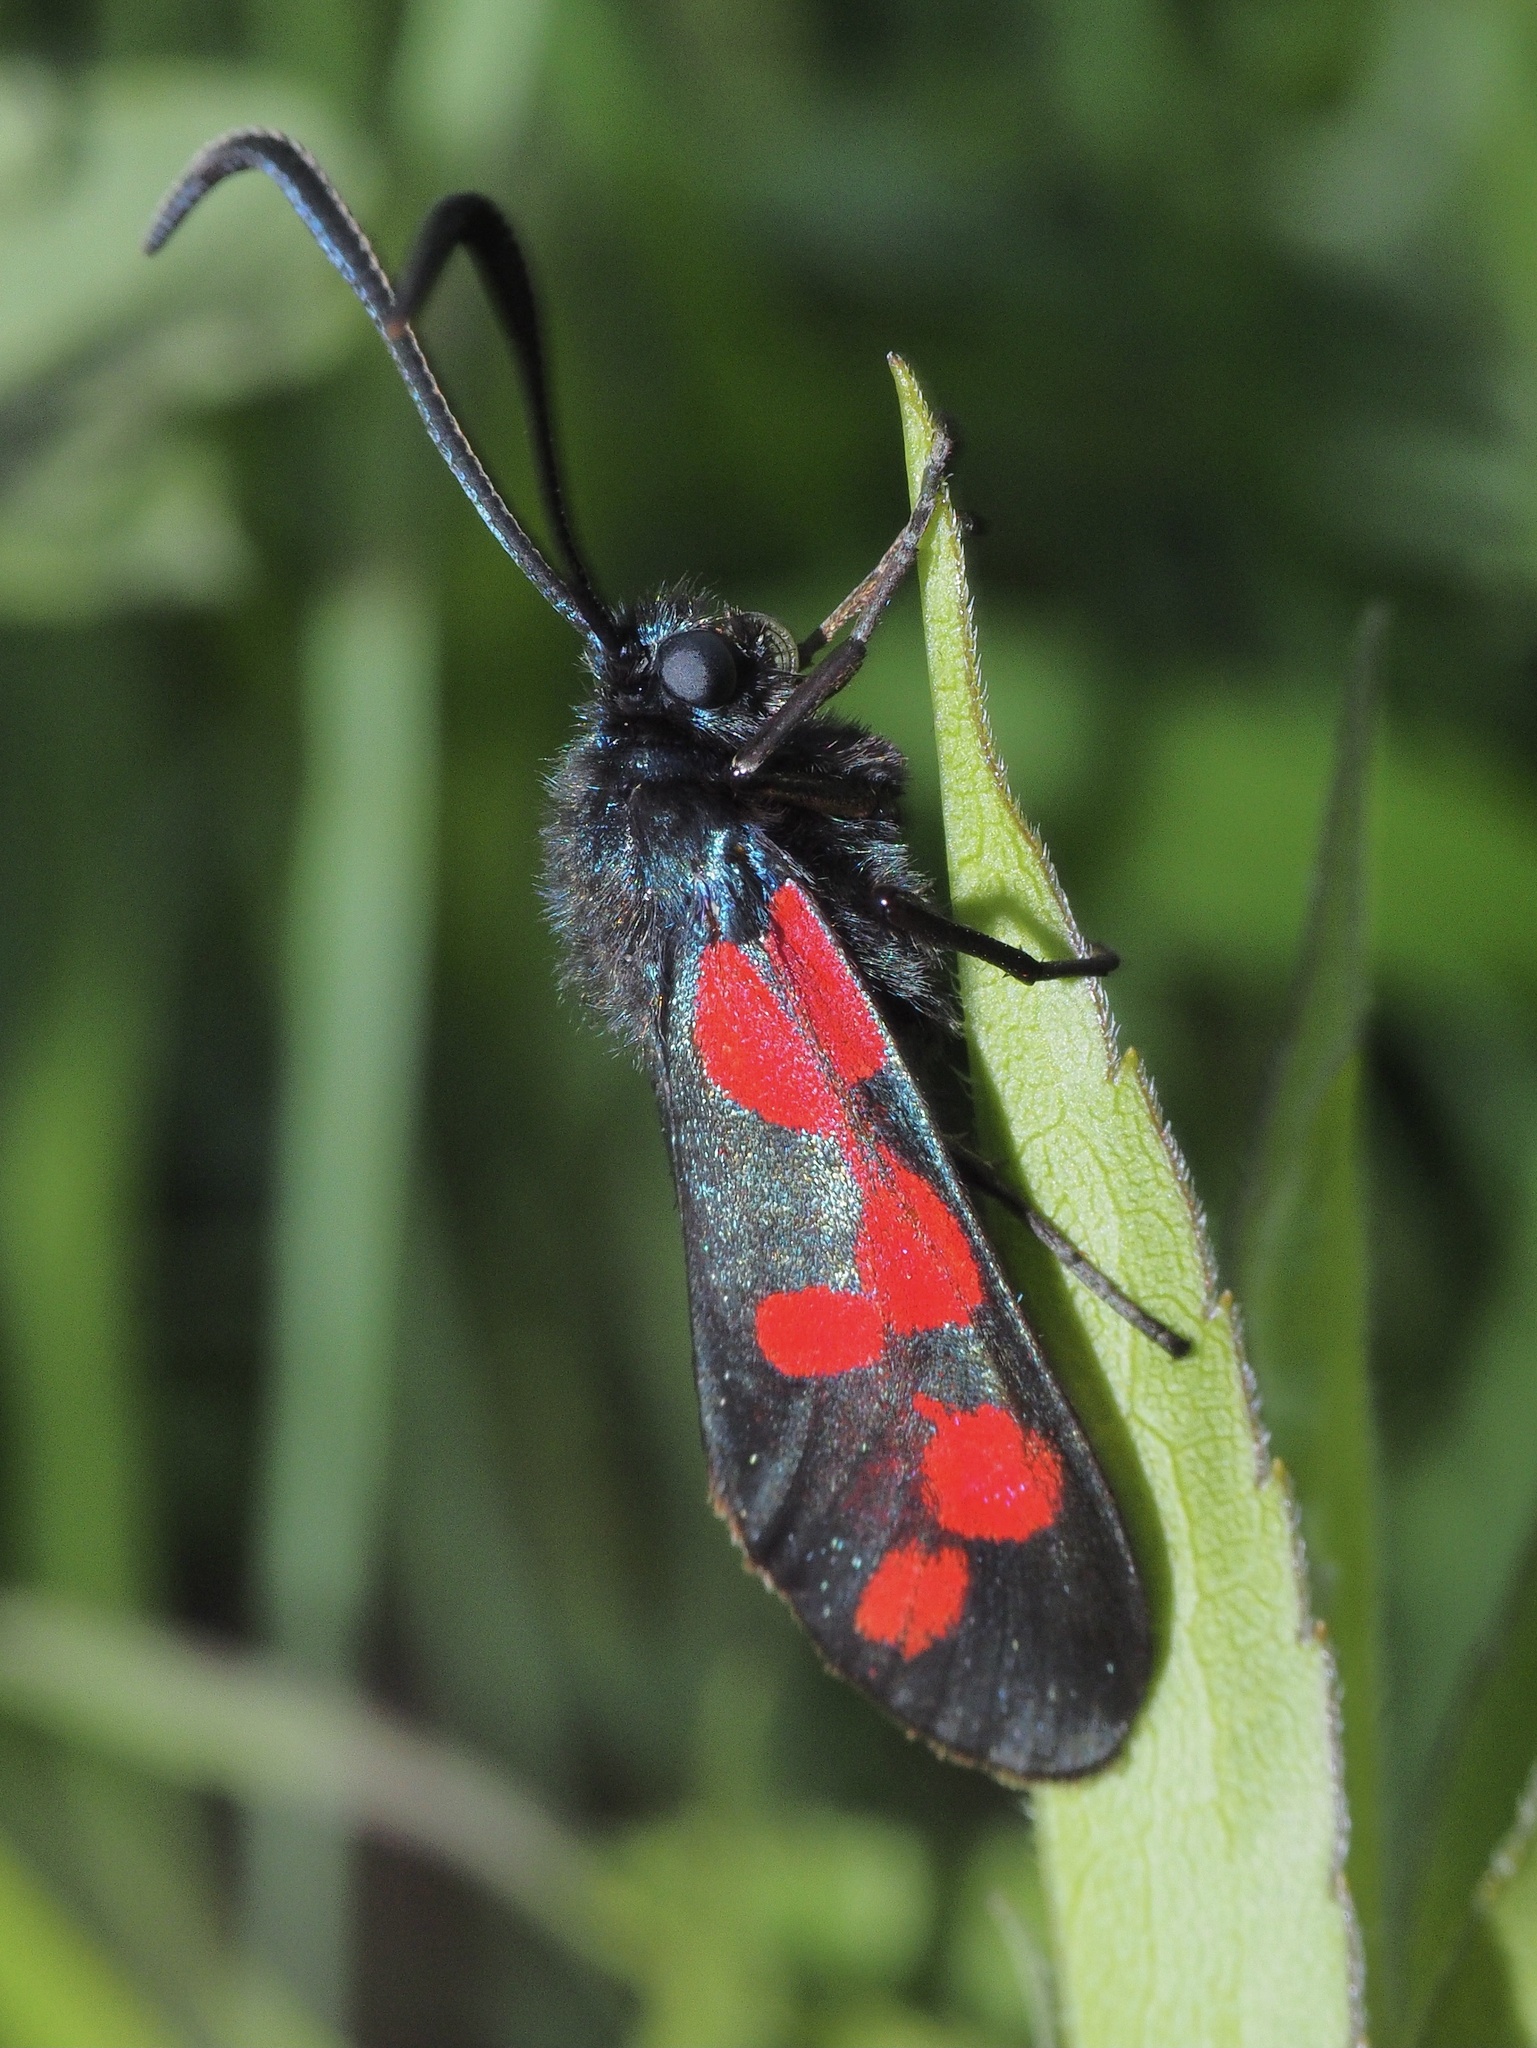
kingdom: Animalia
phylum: Arthropoda
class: Insecta
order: Lepidoptera
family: Zygaenidae
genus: Zygaena
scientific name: Zygaena filipendulae
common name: Six-spot burnet
